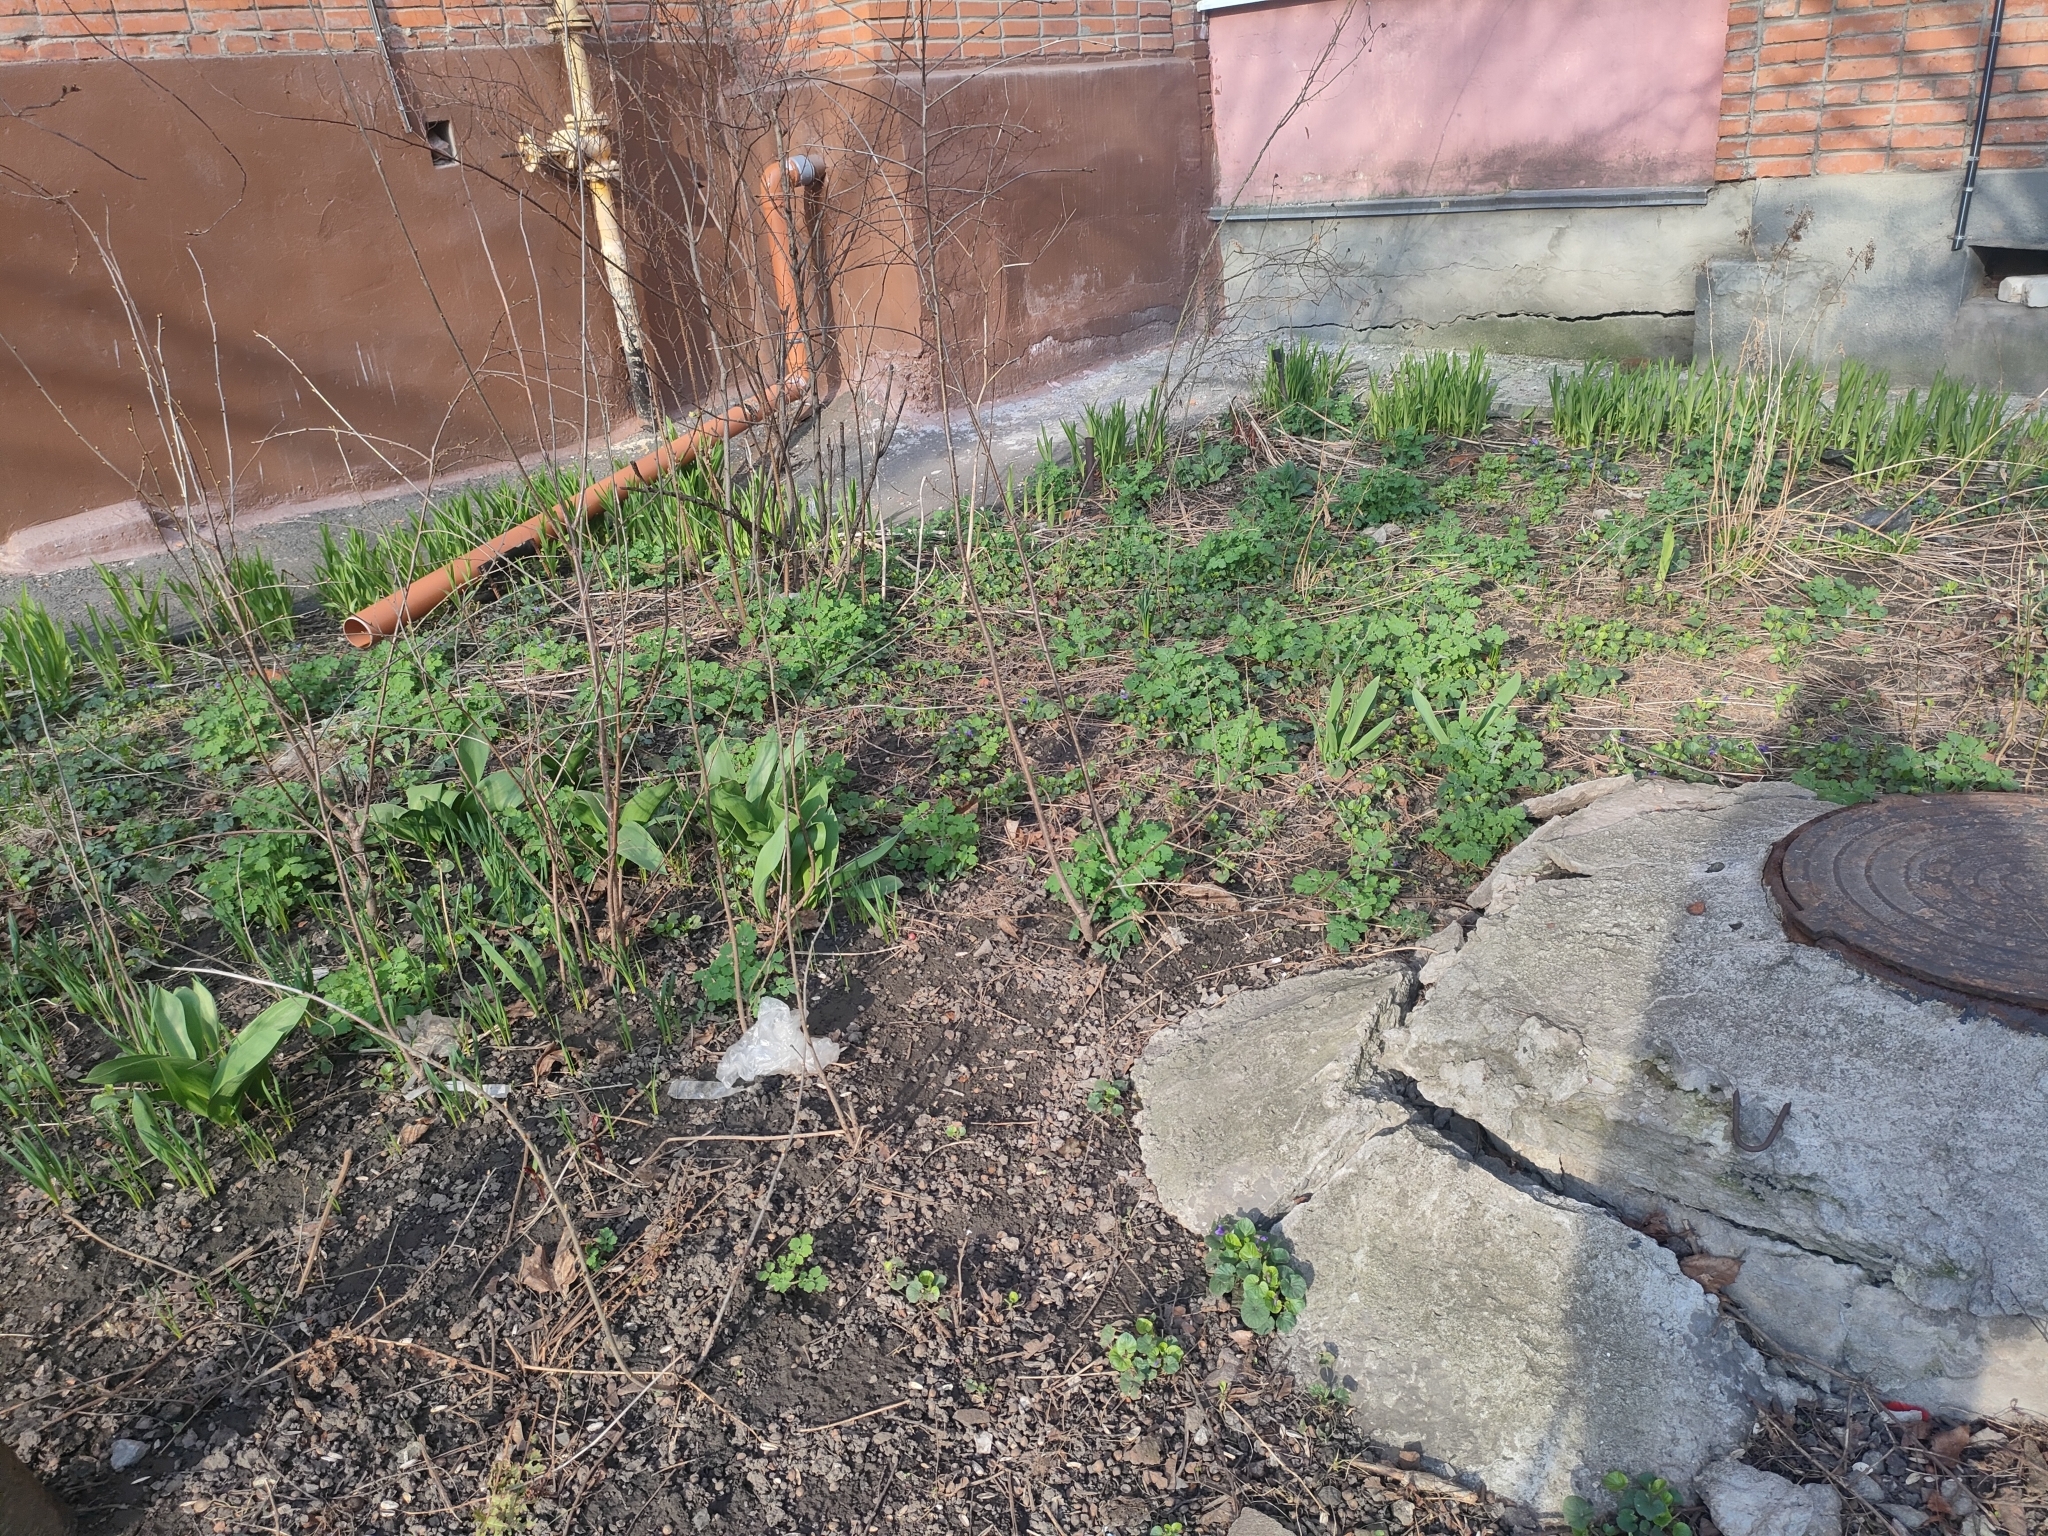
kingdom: Plantae
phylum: Tracheophyta
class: Magnoliopsida
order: Malpighiales
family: Violaceae
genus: Viola
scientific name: Viola odorata
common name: Sweet violet
